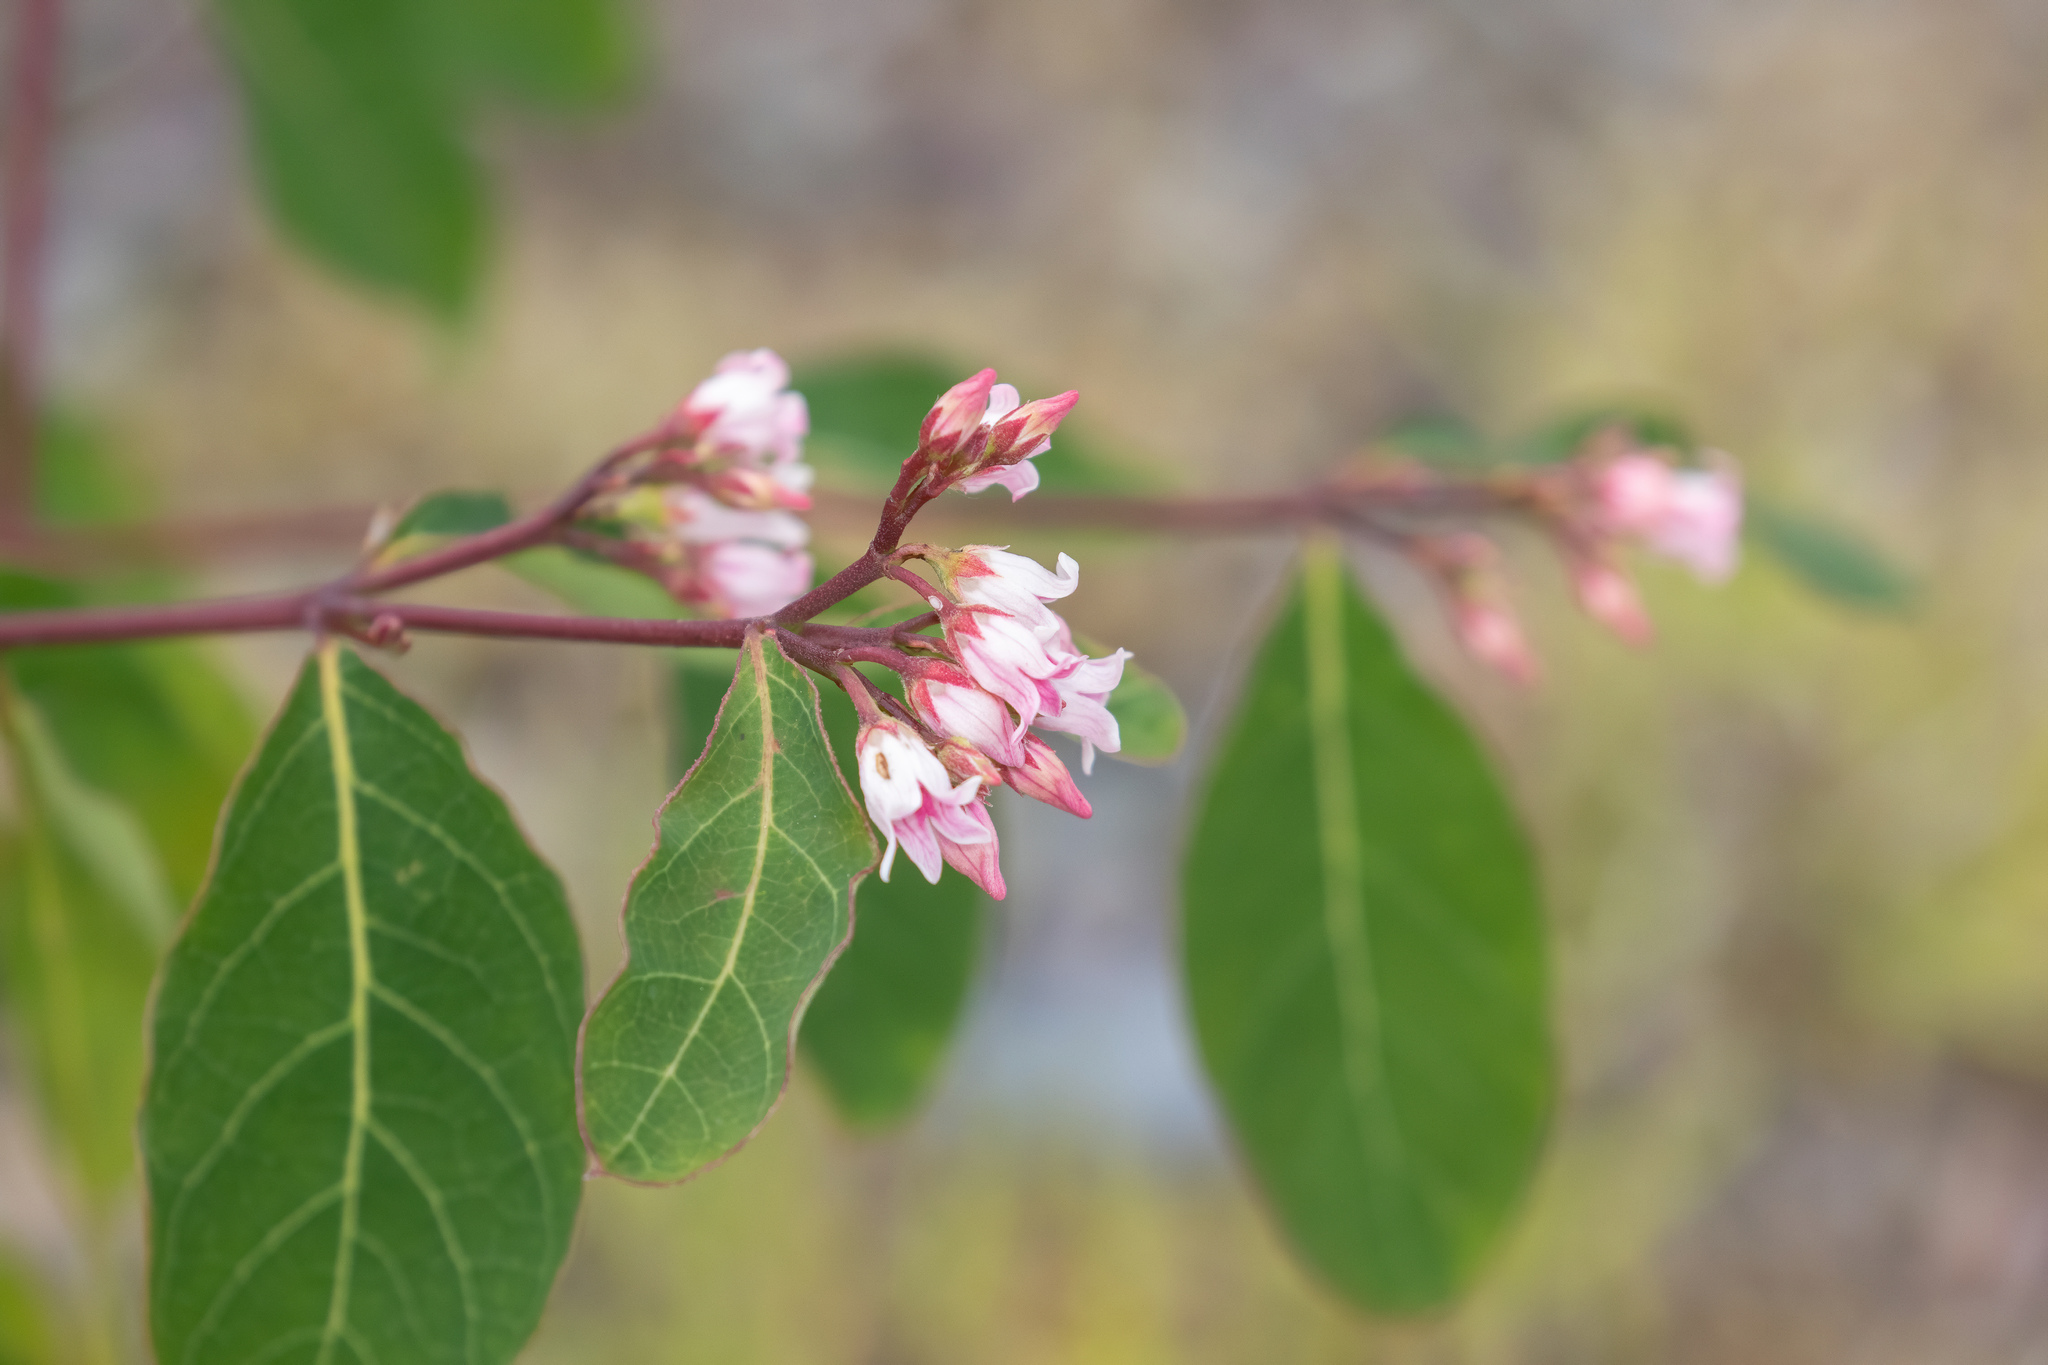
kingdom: Plantae
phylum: Tracheophyta
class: Magnoliopsida
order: Gentianales
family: Apocynaceae
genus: Apocynum
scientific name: Apocynum androsaemifolium
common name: Spreading dogbane
